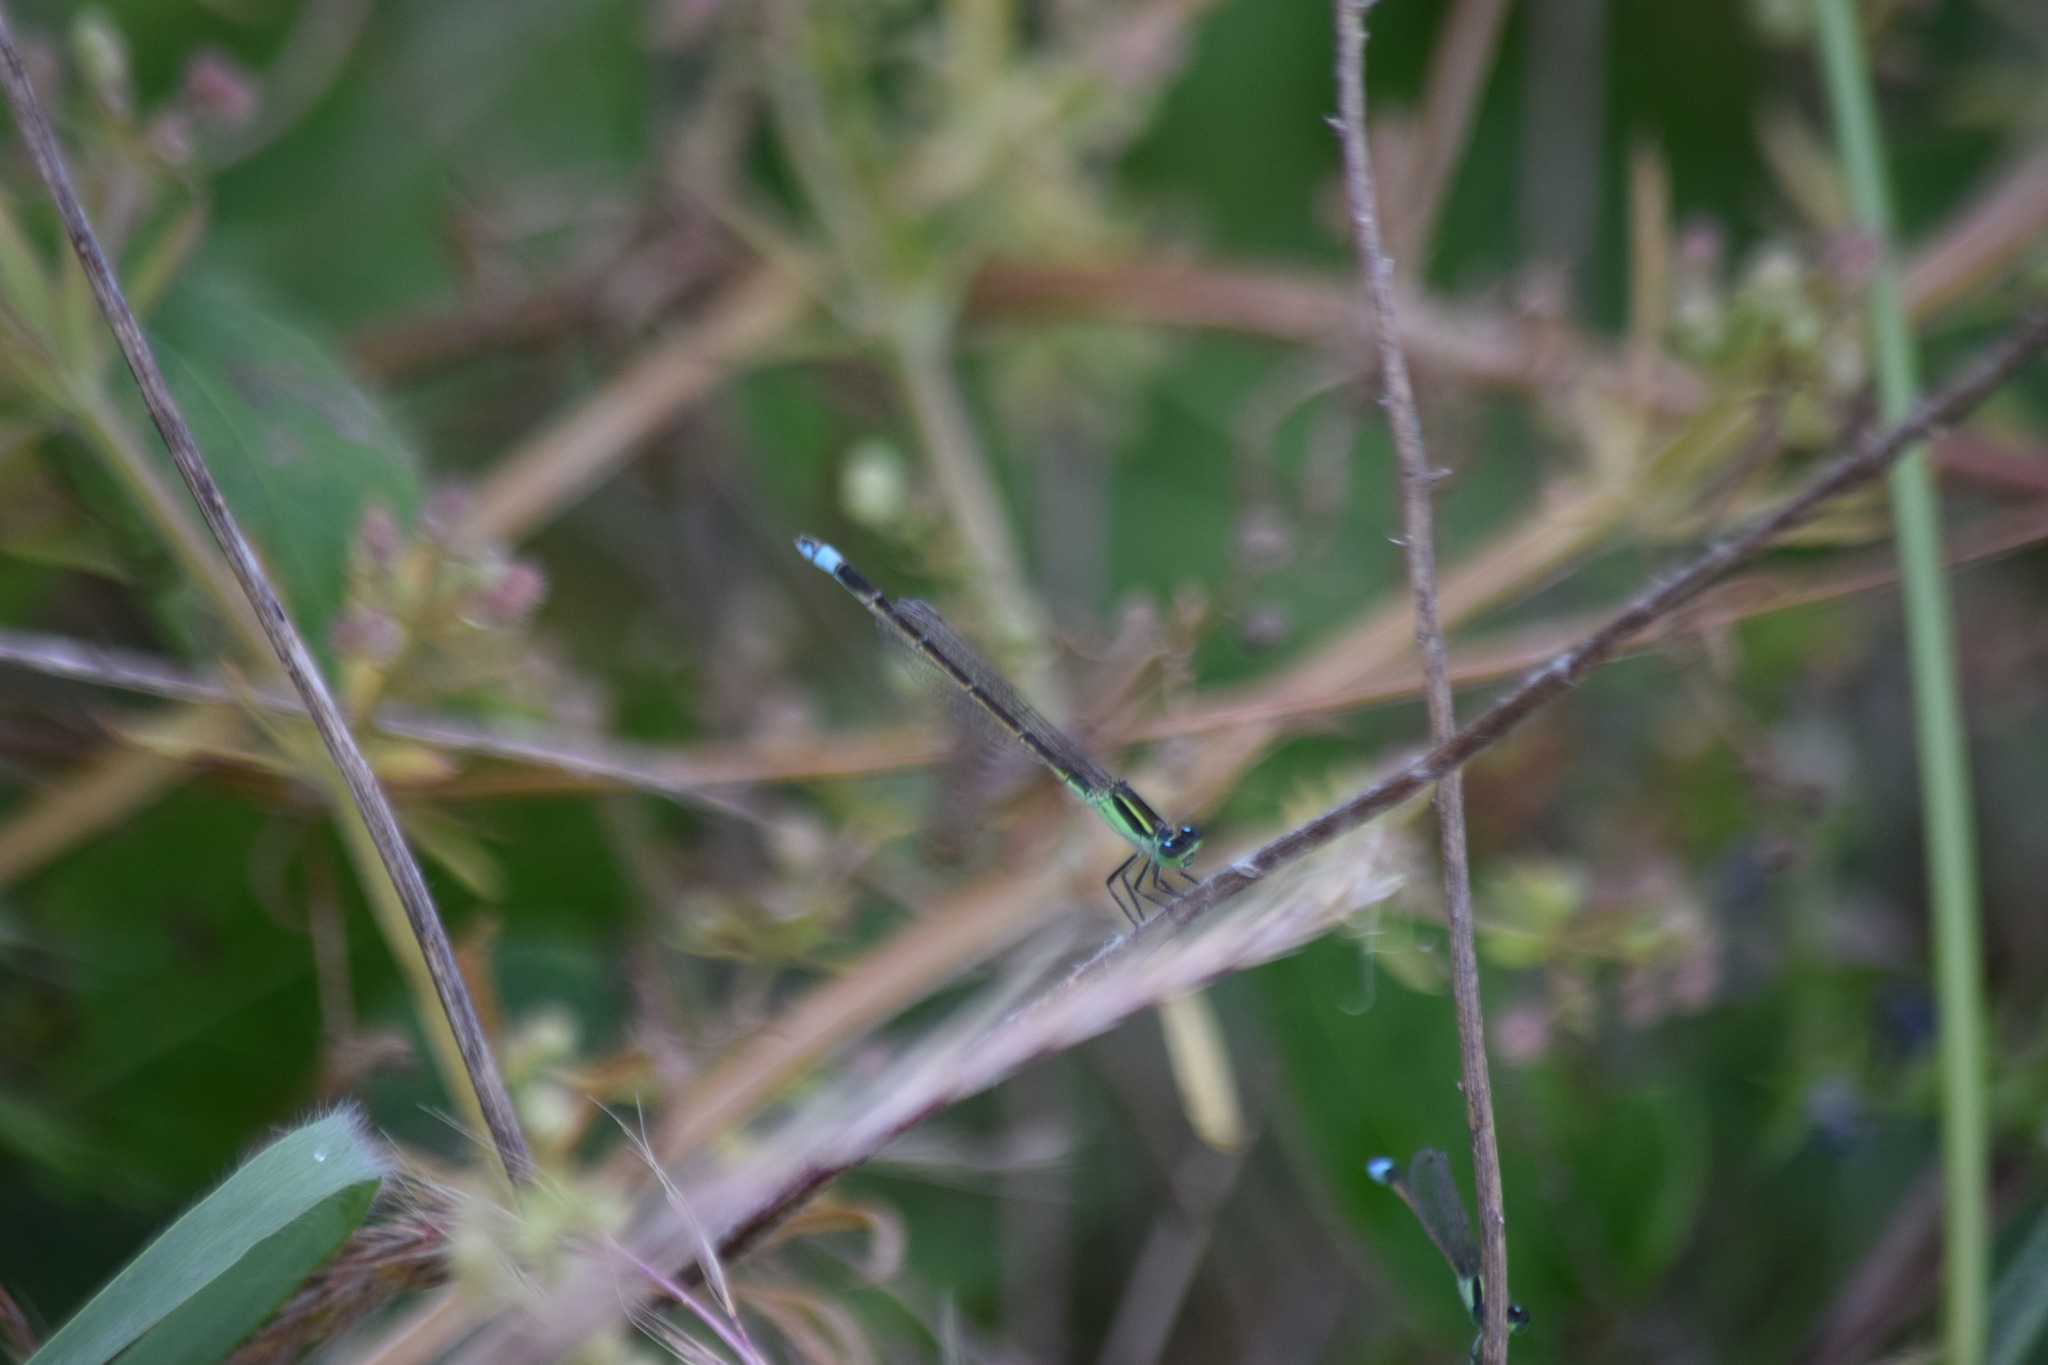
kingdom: Animalia
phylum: Arthropoda
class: Insecta
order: Odonata
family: Coenagrionidae
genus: Ischnura
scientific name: Ischnura ramburii
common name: Rambur's forktail
